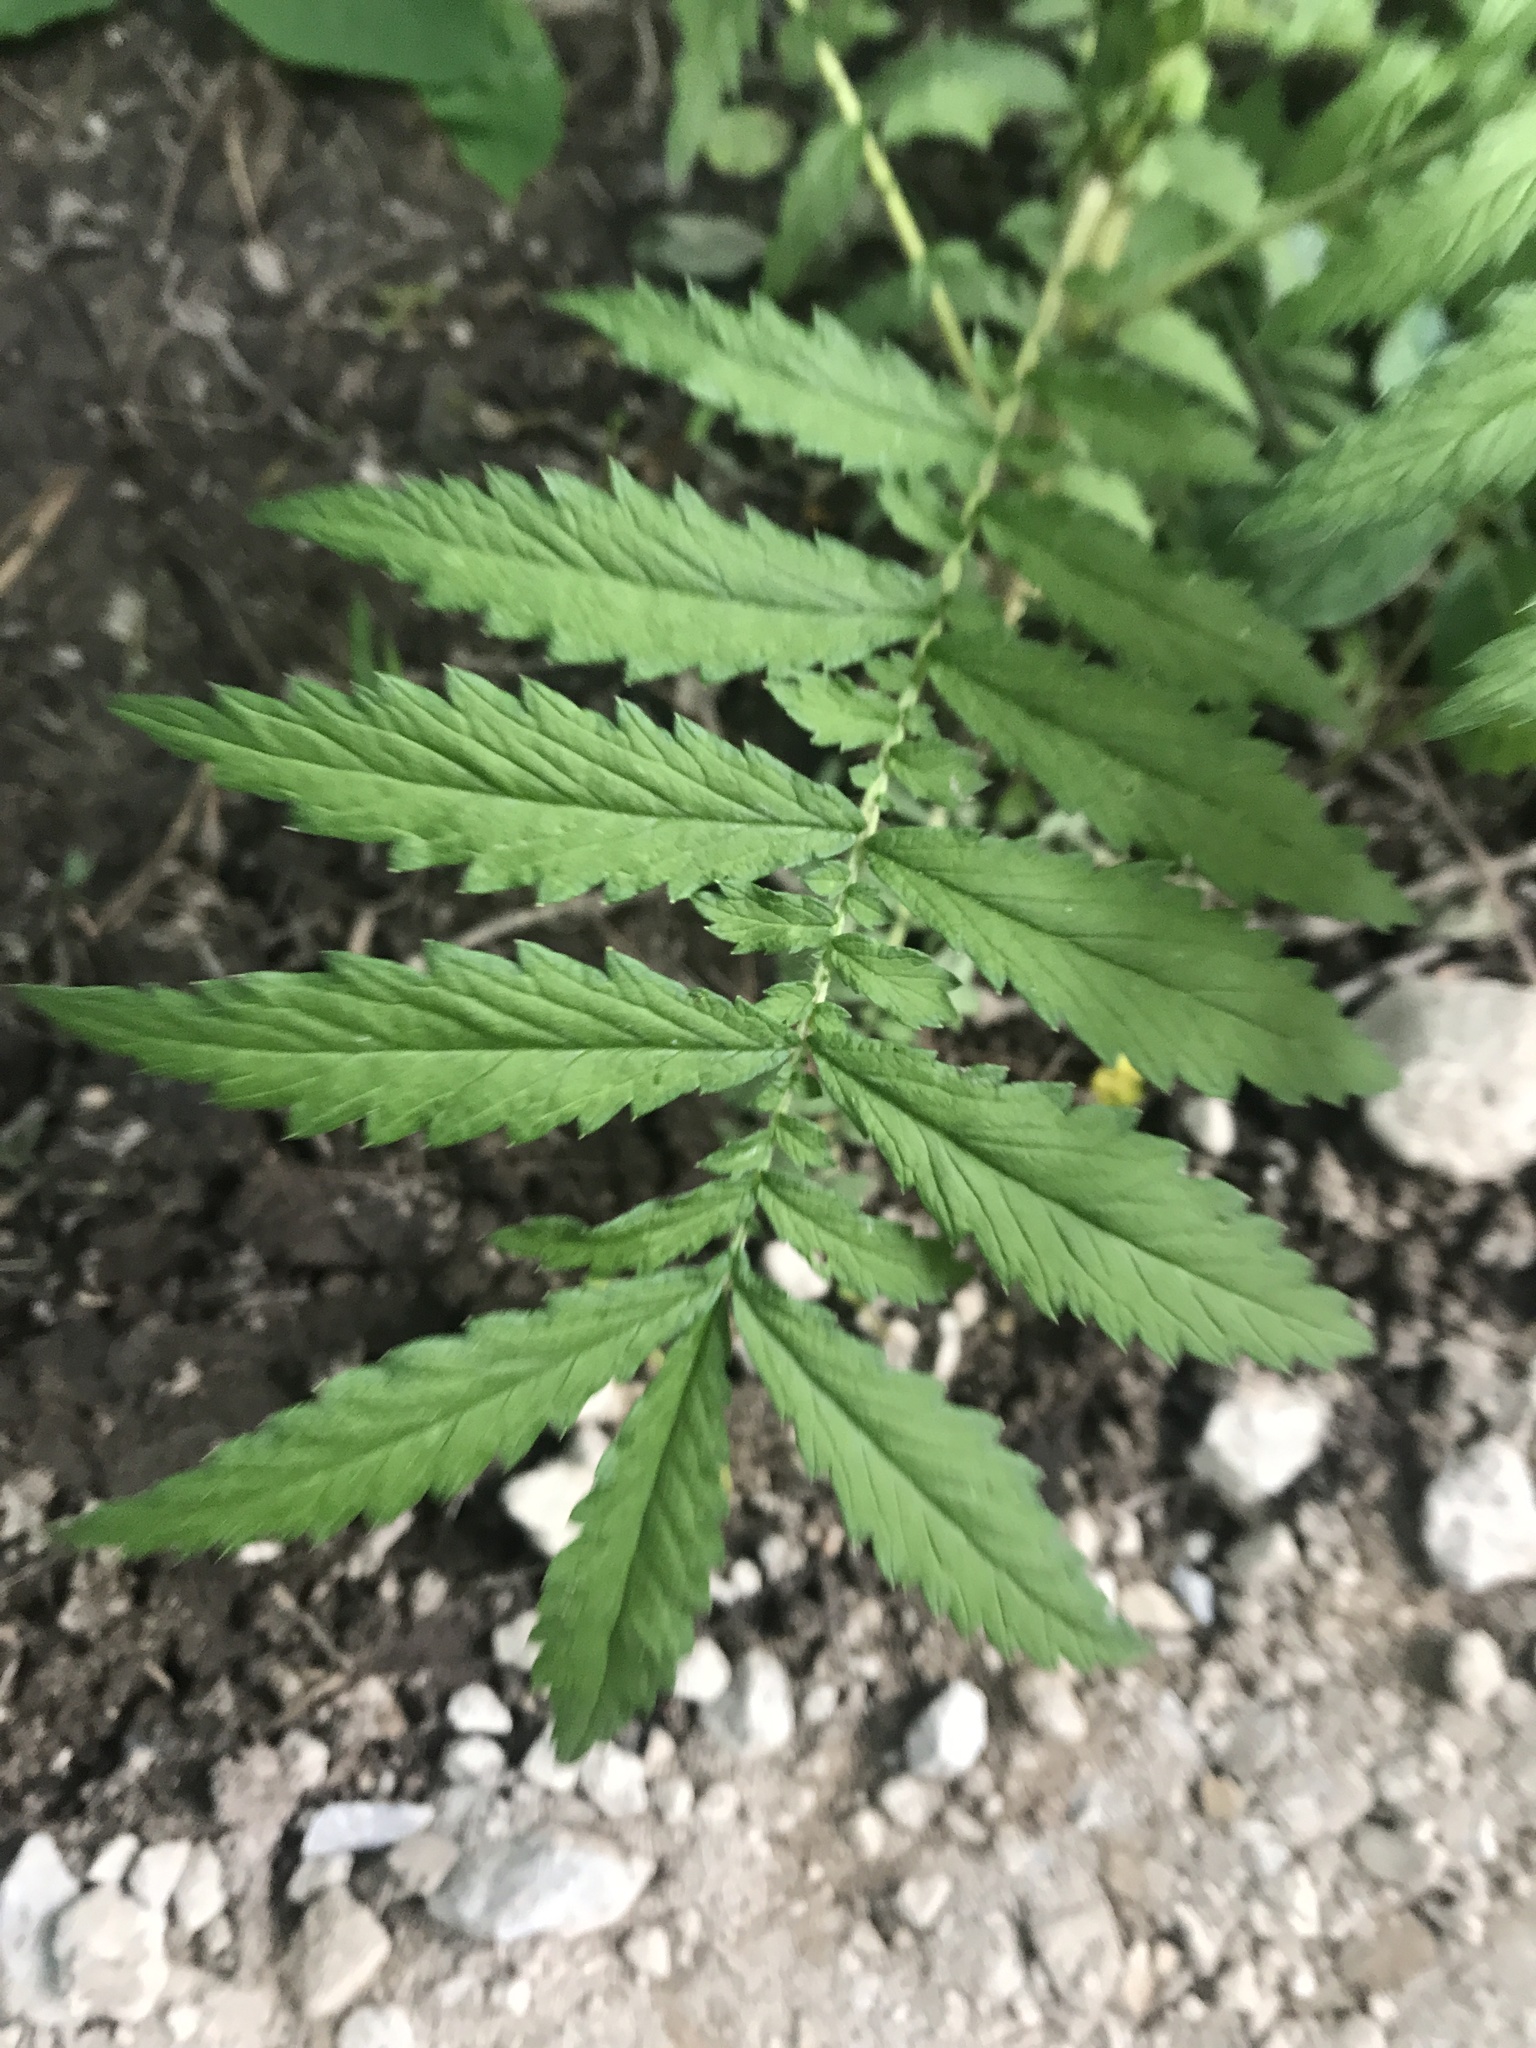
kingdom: Plantae
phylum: Tracheophyta
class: Magnoliopsida
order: Rosales
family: Rosaceae
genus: Agrimonia
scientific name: Agrimonia parviflora
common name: Harvest-lice
